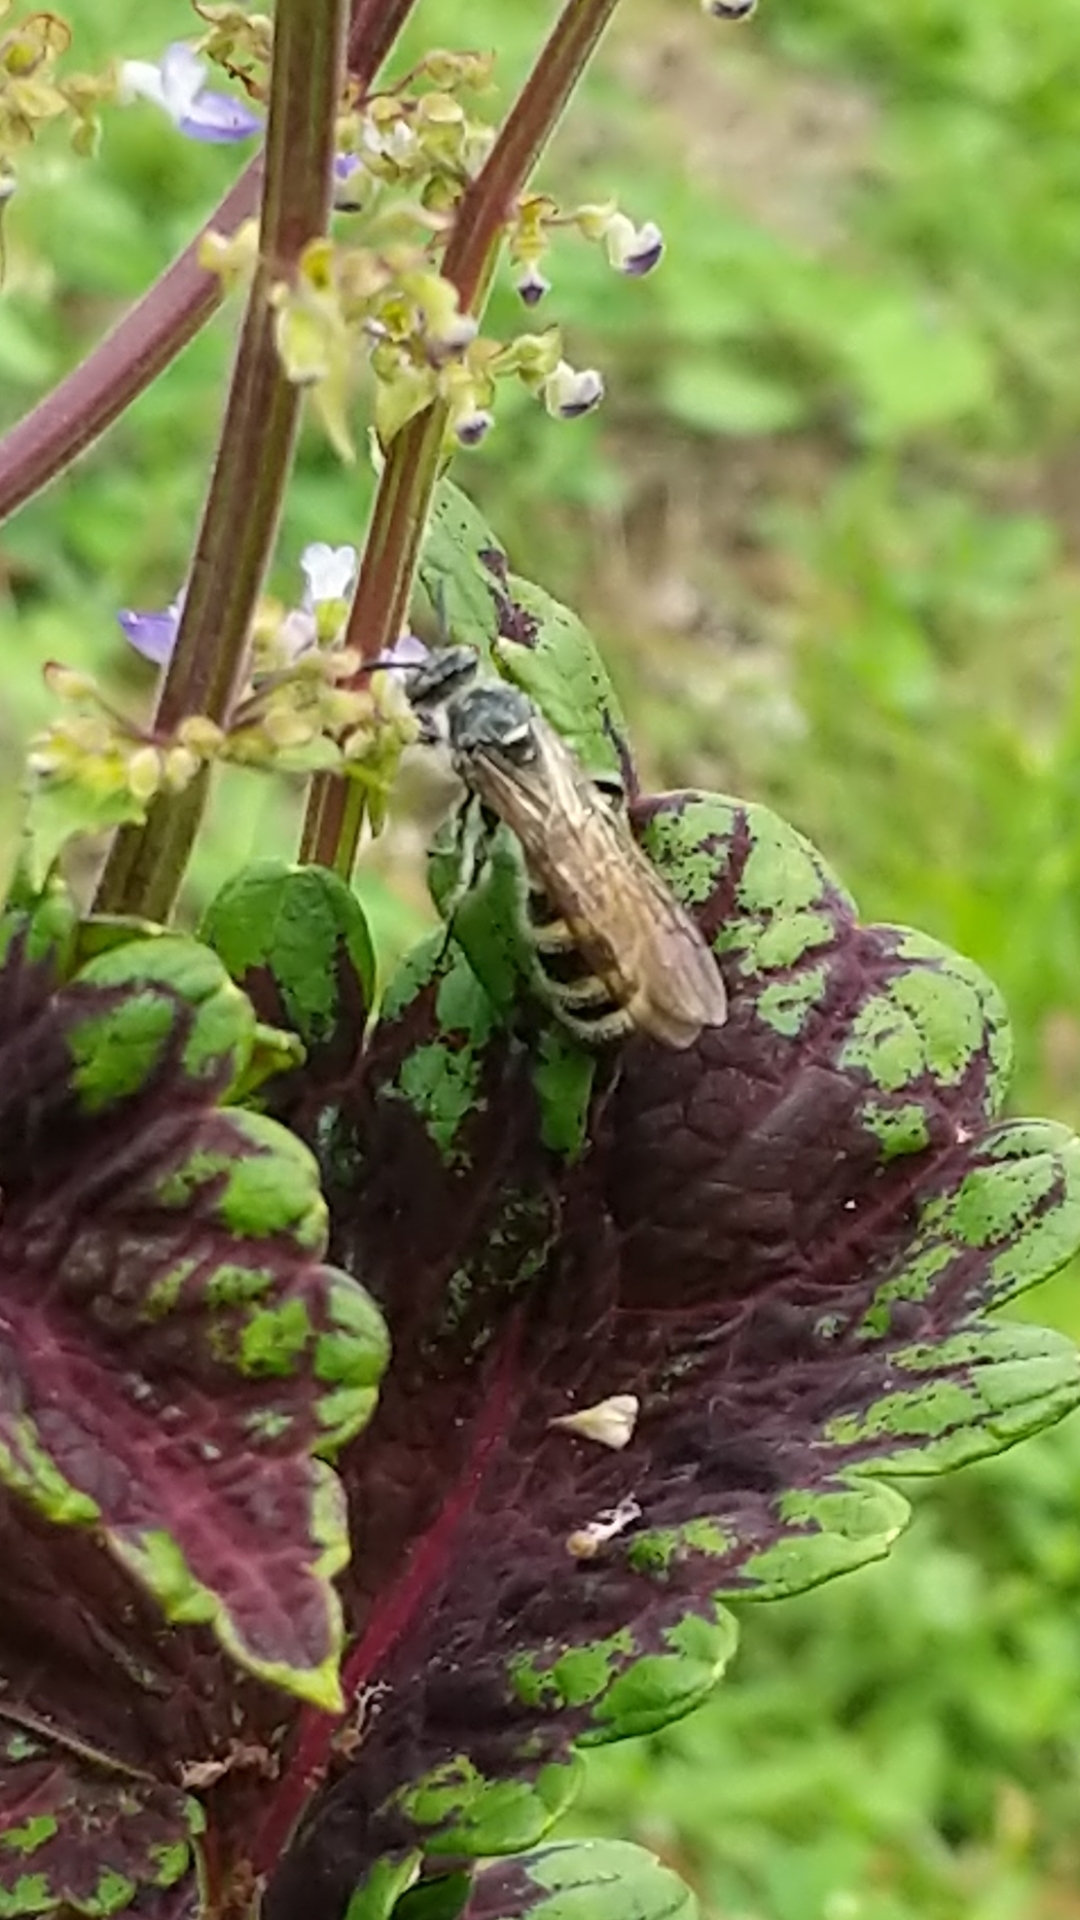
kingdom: Animalia
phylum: Arthropoda
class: Insecta
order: Hymenoptera
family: Scoliidae
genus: Dielis
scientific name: Dielis
